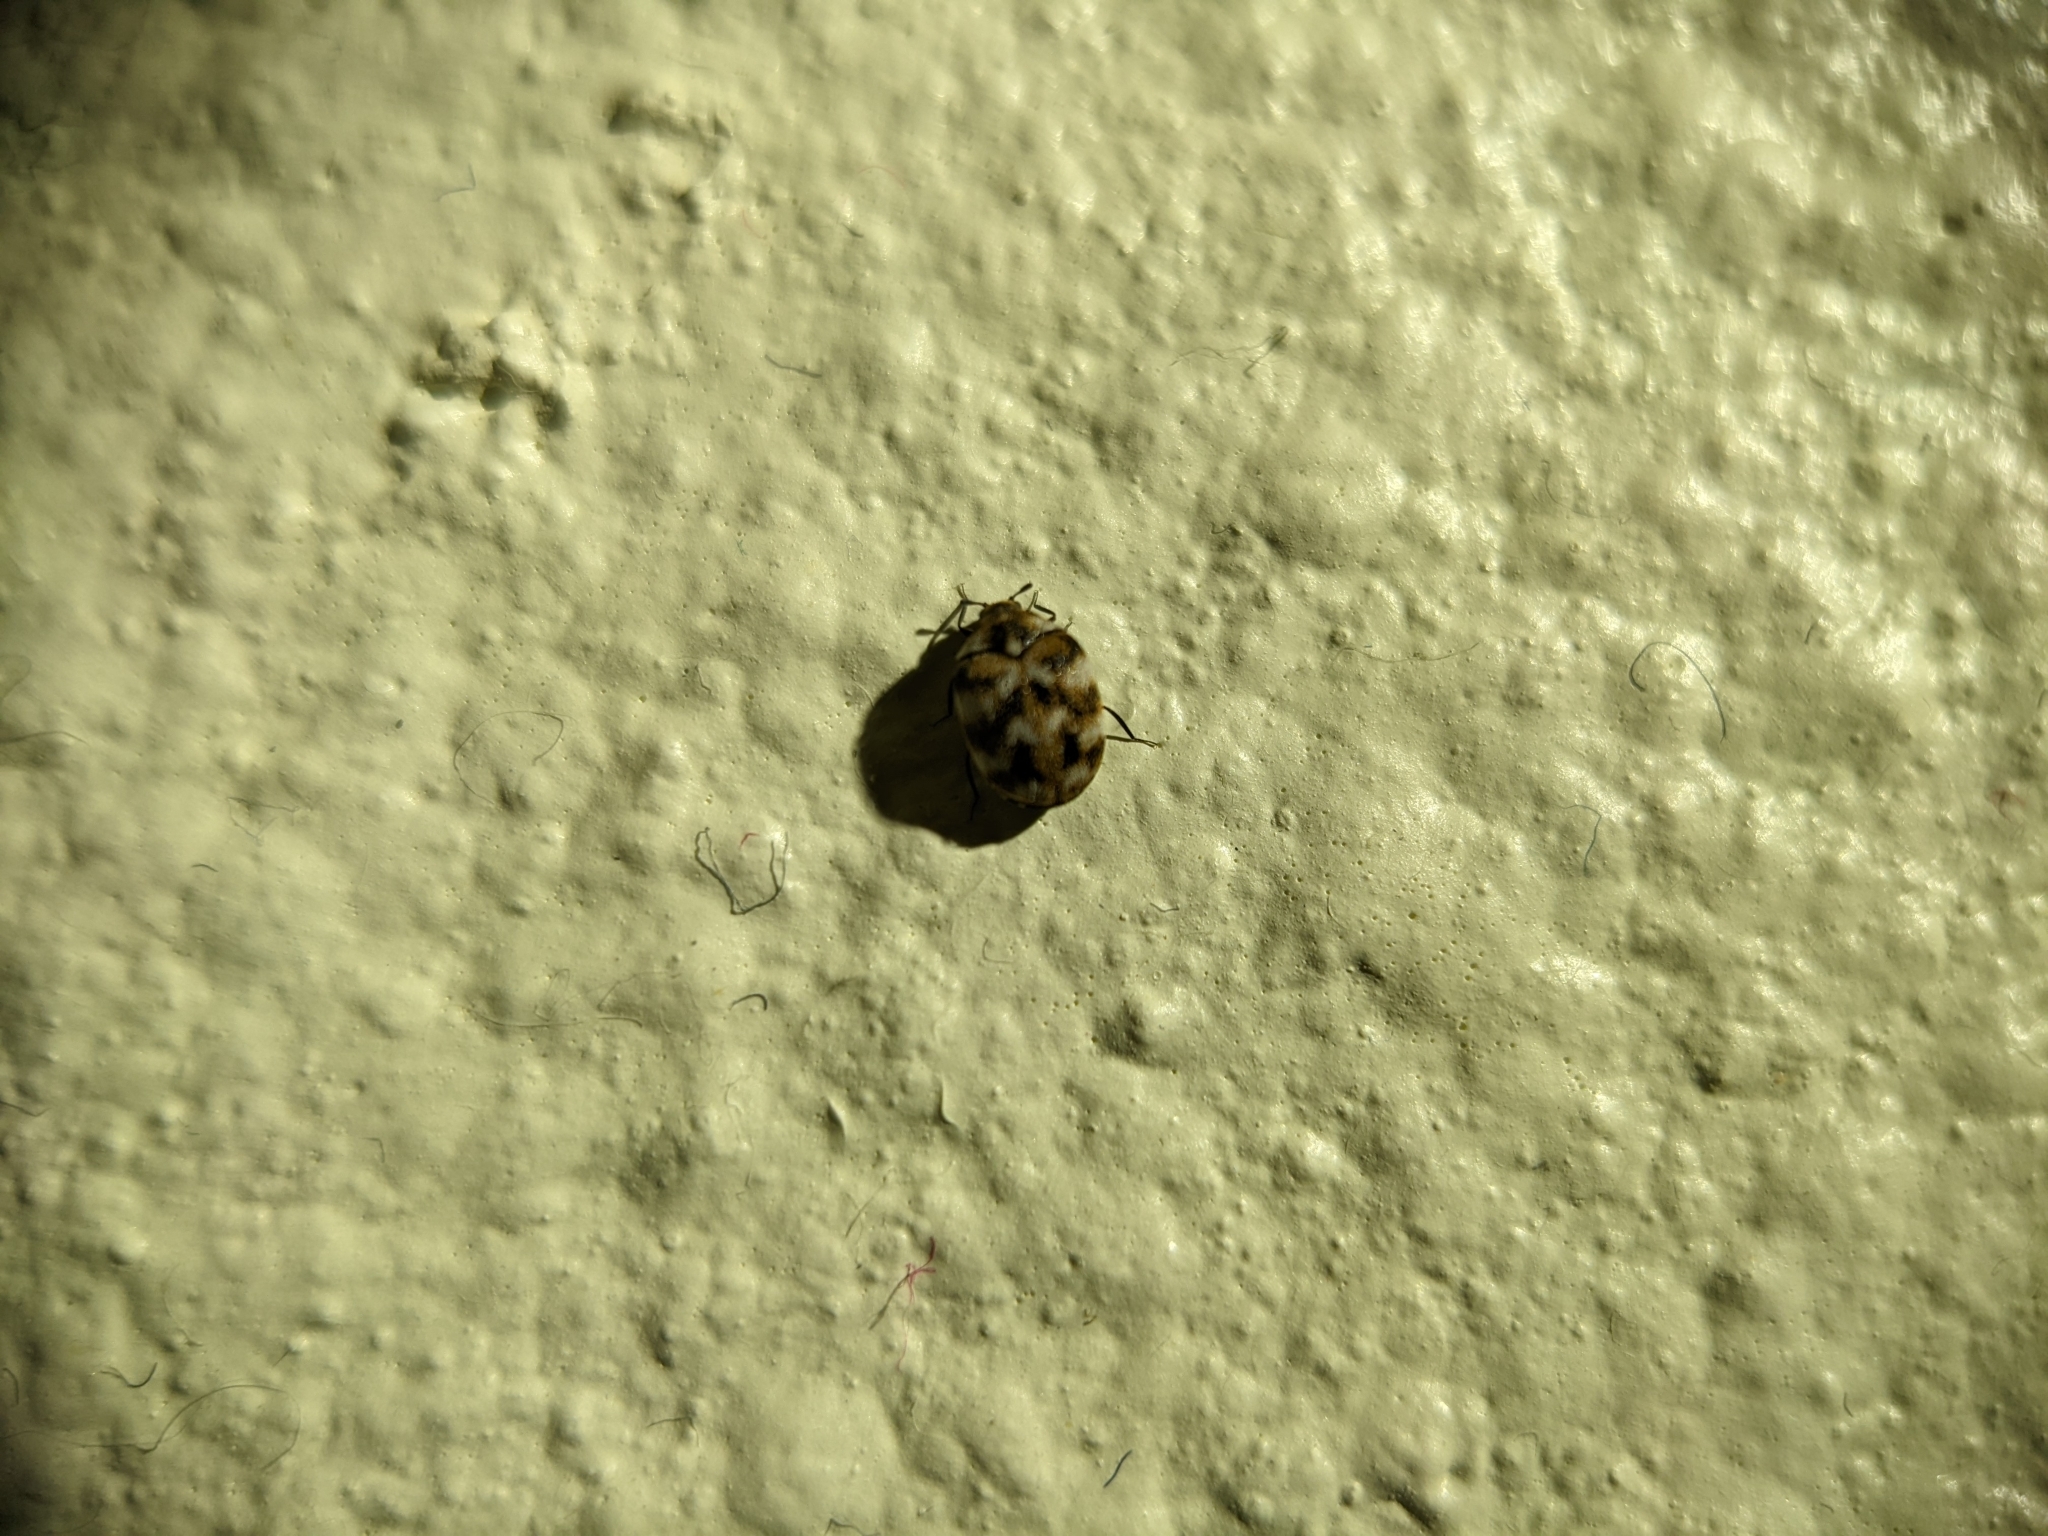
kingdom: Animalia
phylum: Arthropoda
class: Insecta
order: Coleoptera
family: Dermestidae
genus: Anthrenus
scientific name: Anthrenus verbasci
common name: Varied carpet beetle
